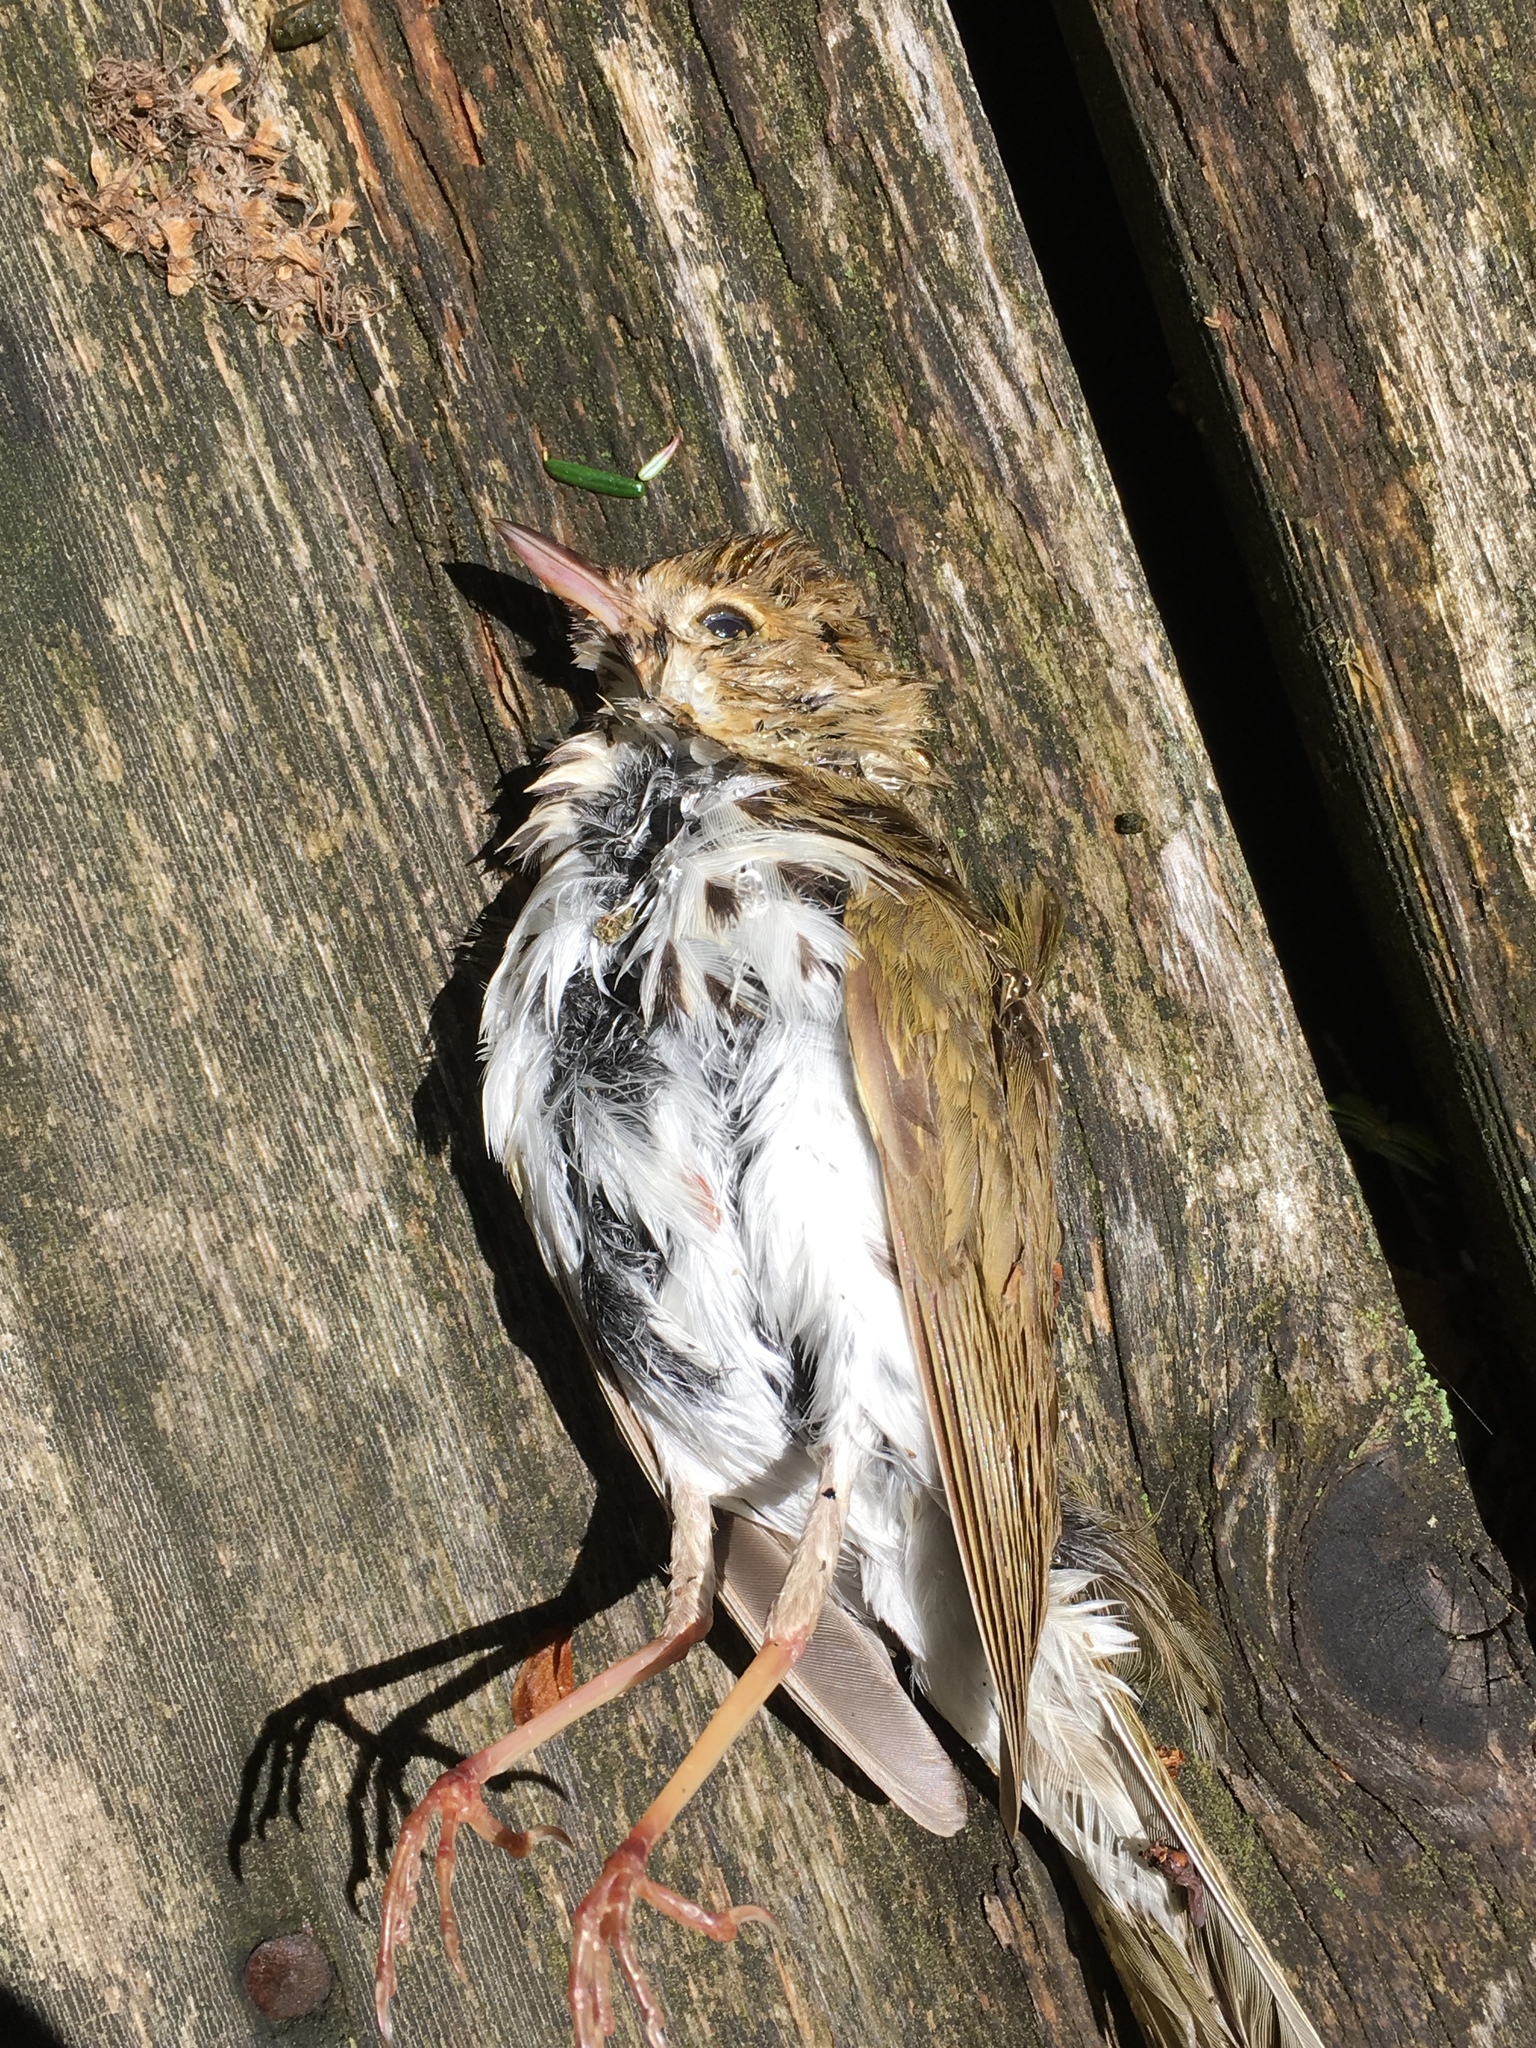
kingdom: Animalia
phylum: Chordata
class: Aves
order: Passeriformes
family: Parulidae
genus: Seiurus
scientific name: Seiurus aurocapilla
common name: Ovenbird
